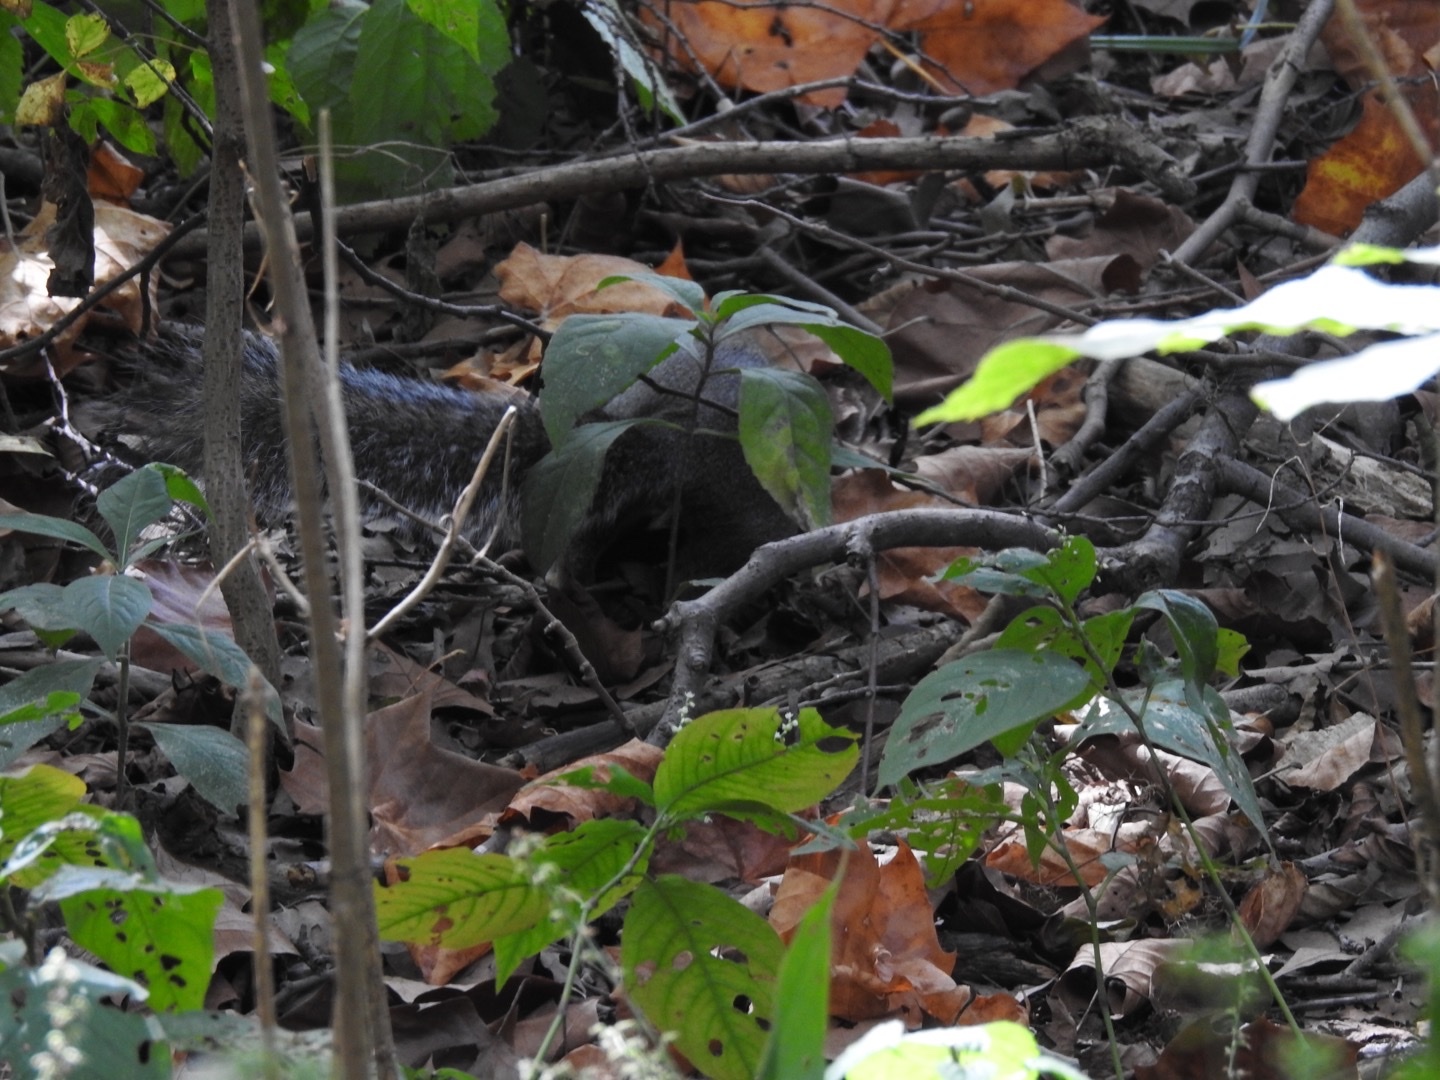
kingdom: Animalia
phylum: Chordata
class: Mammalia
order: Rodentia
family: Sciuridae
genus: Sciurus
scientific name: Sciurus carolinensis
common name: Eastern gray squirrel
